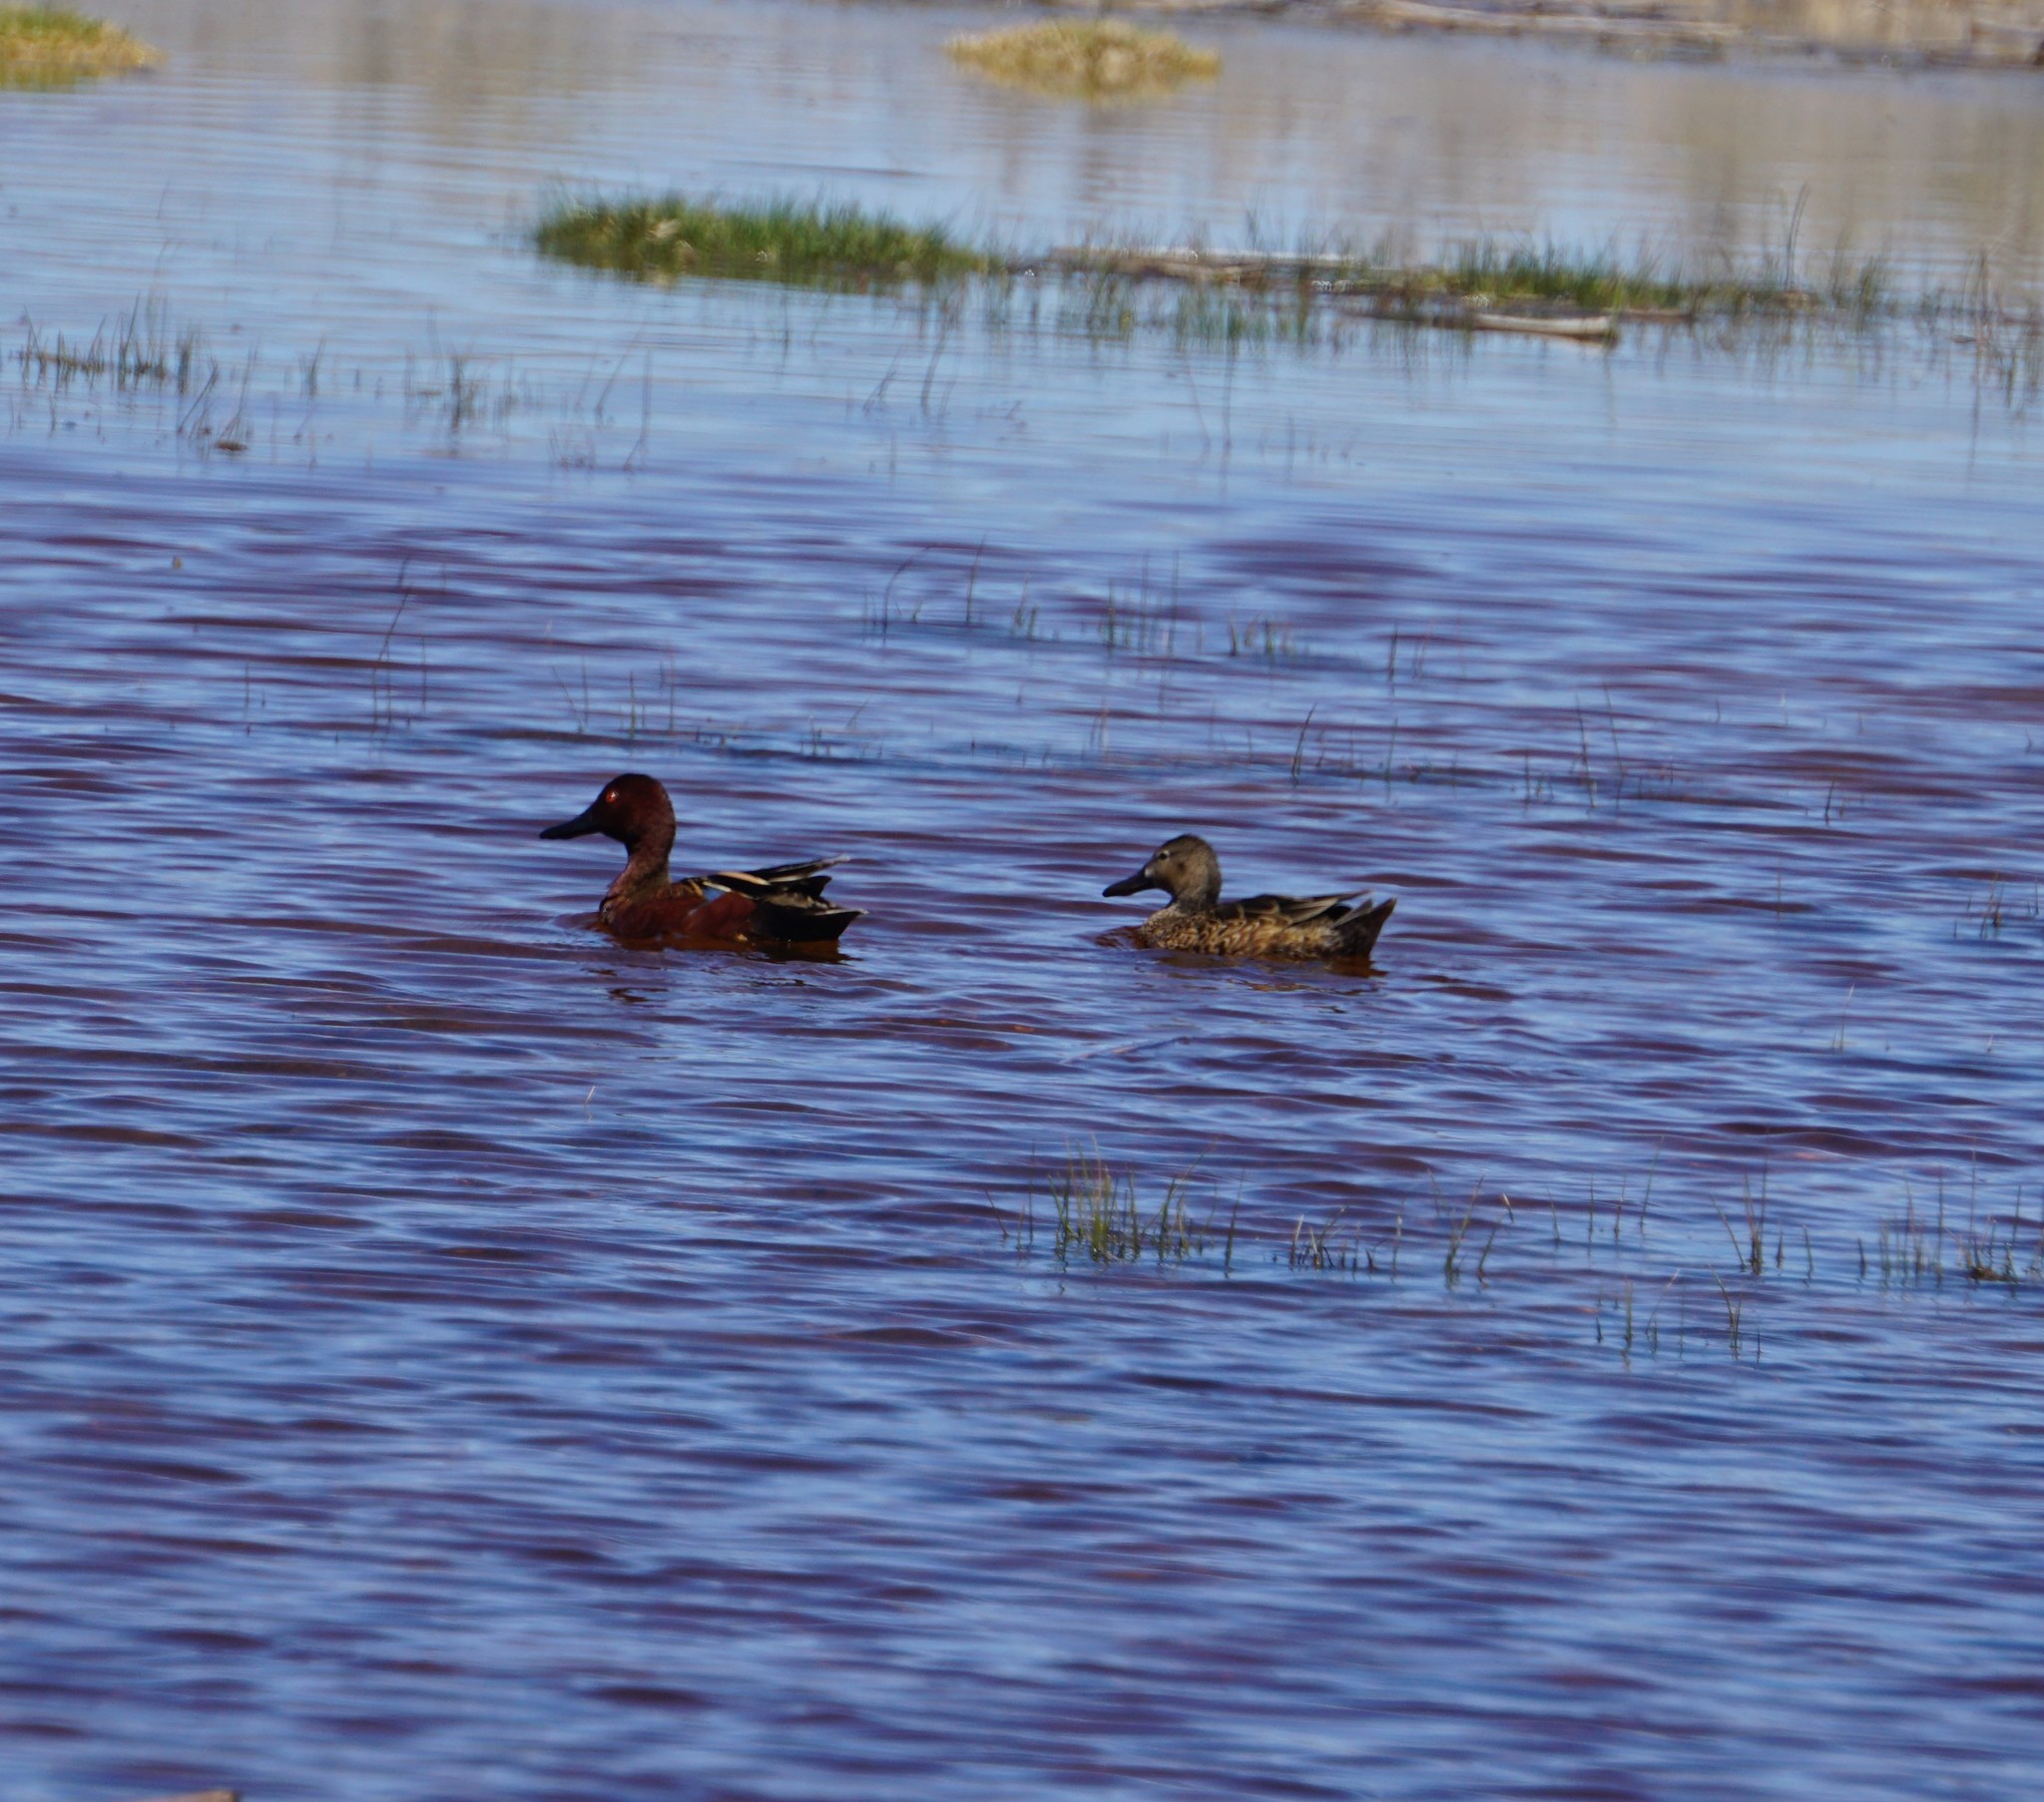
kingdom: Animalia
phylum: Chordata
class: Aves
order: Anseriformes
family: Anatidae
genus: Spatula
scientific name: Spatula cyanoptera
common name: Cinnamon teal
